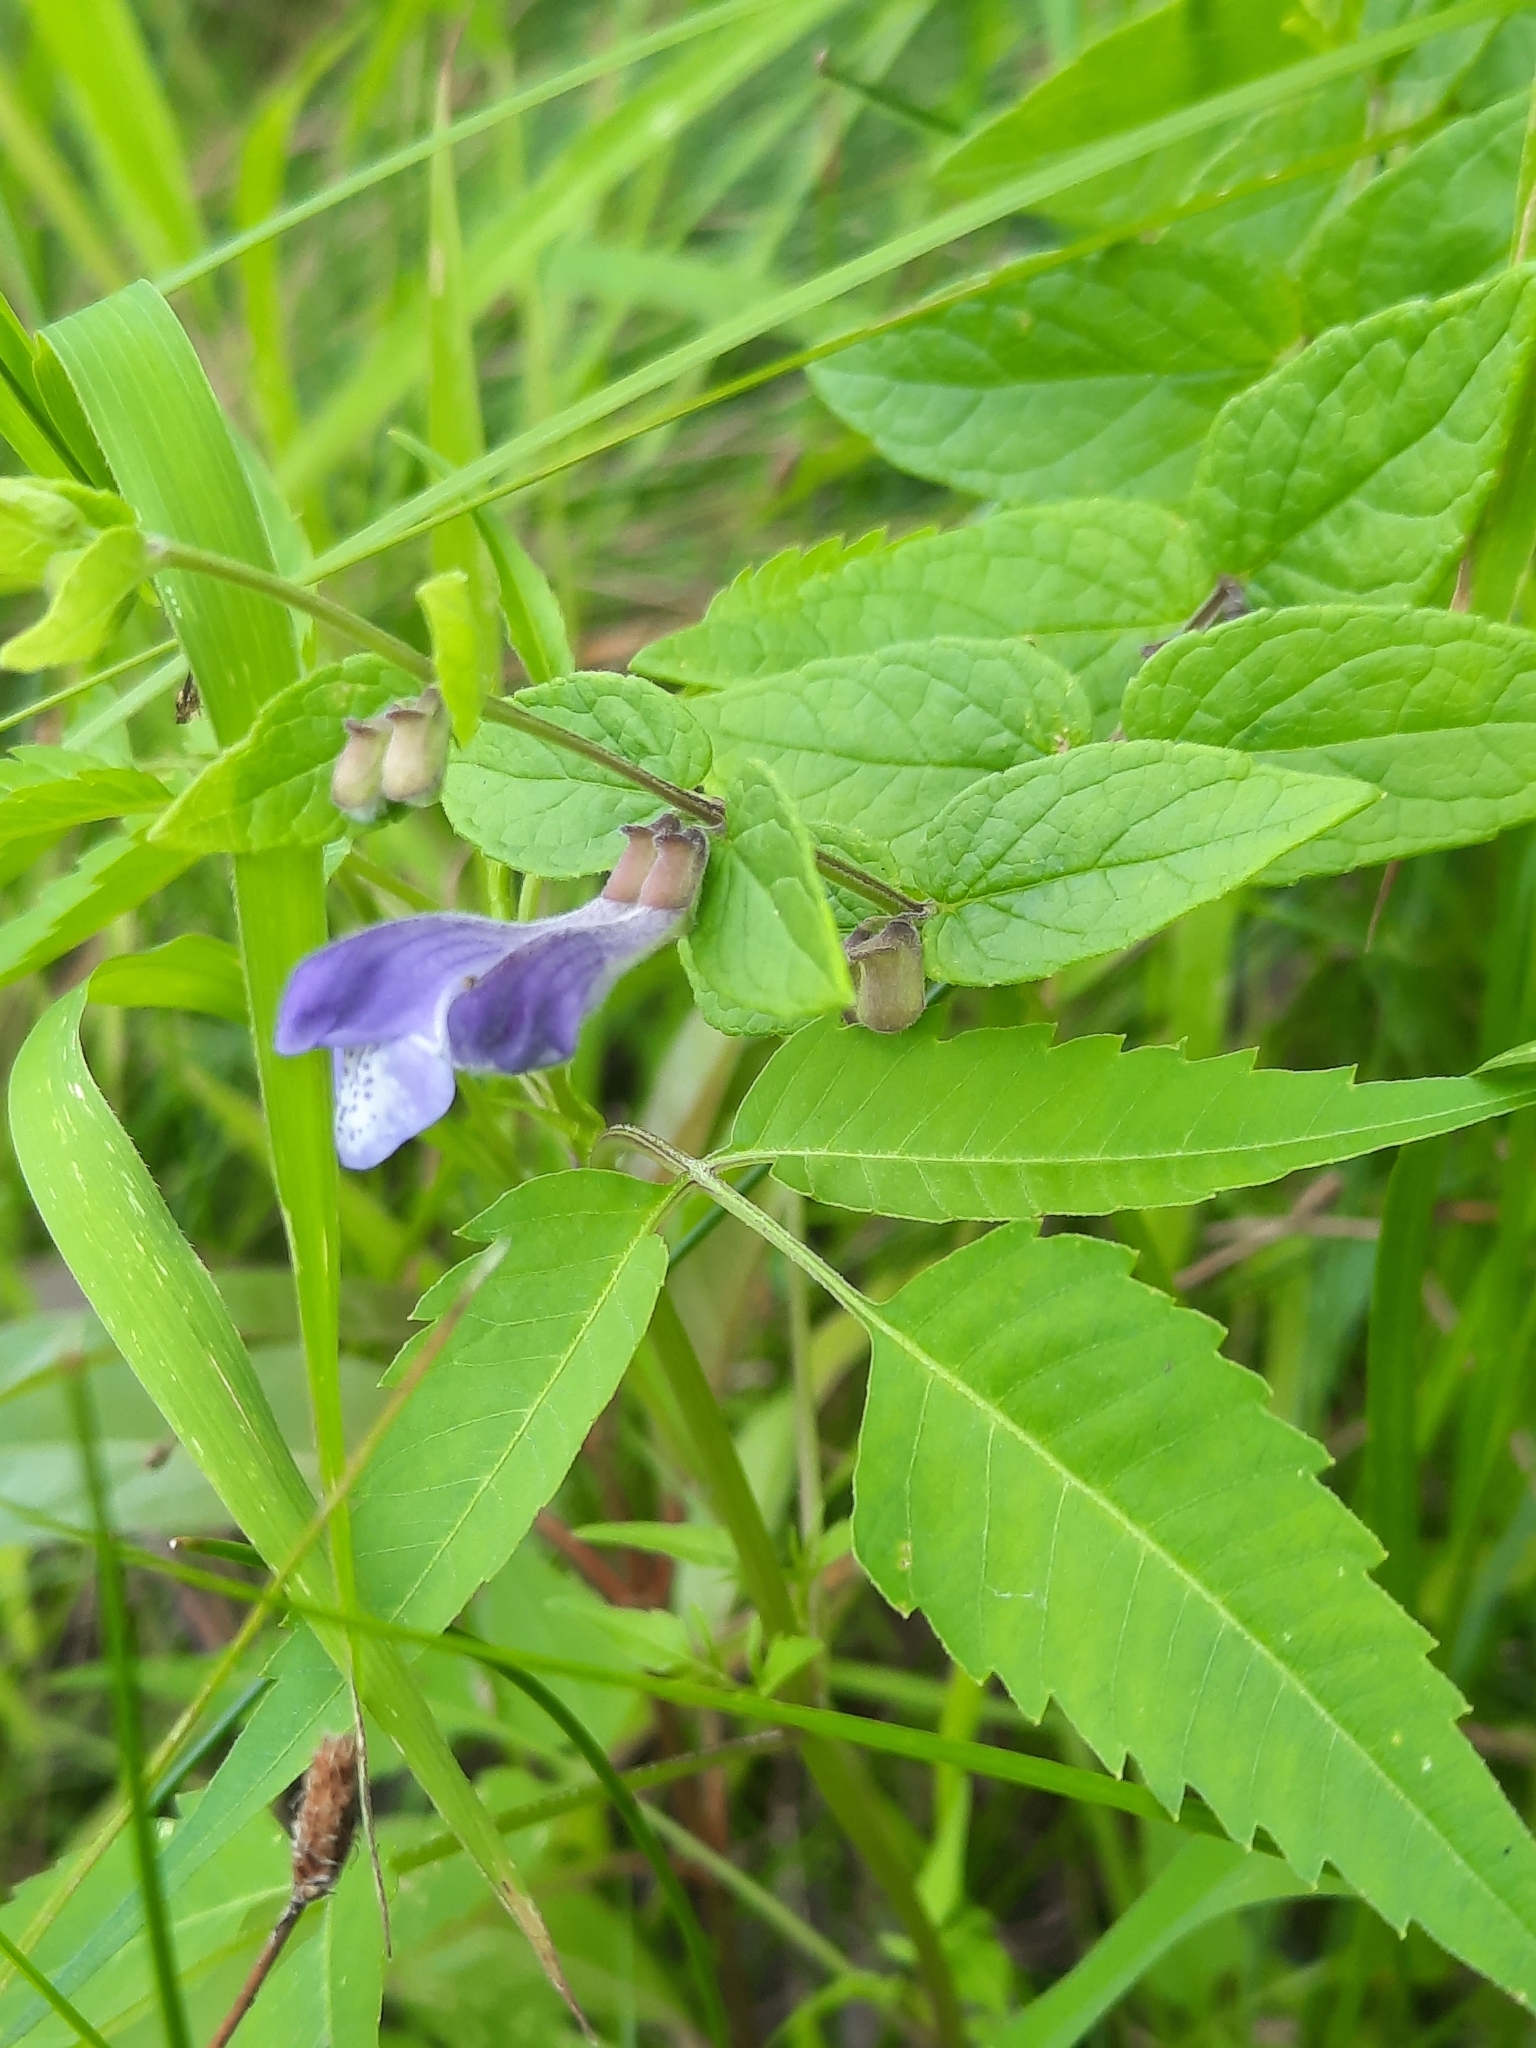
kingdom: Plantae
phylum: Tracheophyta
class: Magnoliopsida
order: Lamiales
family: Lamiaceae
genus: Scutellaria
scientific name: Scutellaria galericulata
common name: Skullcap
